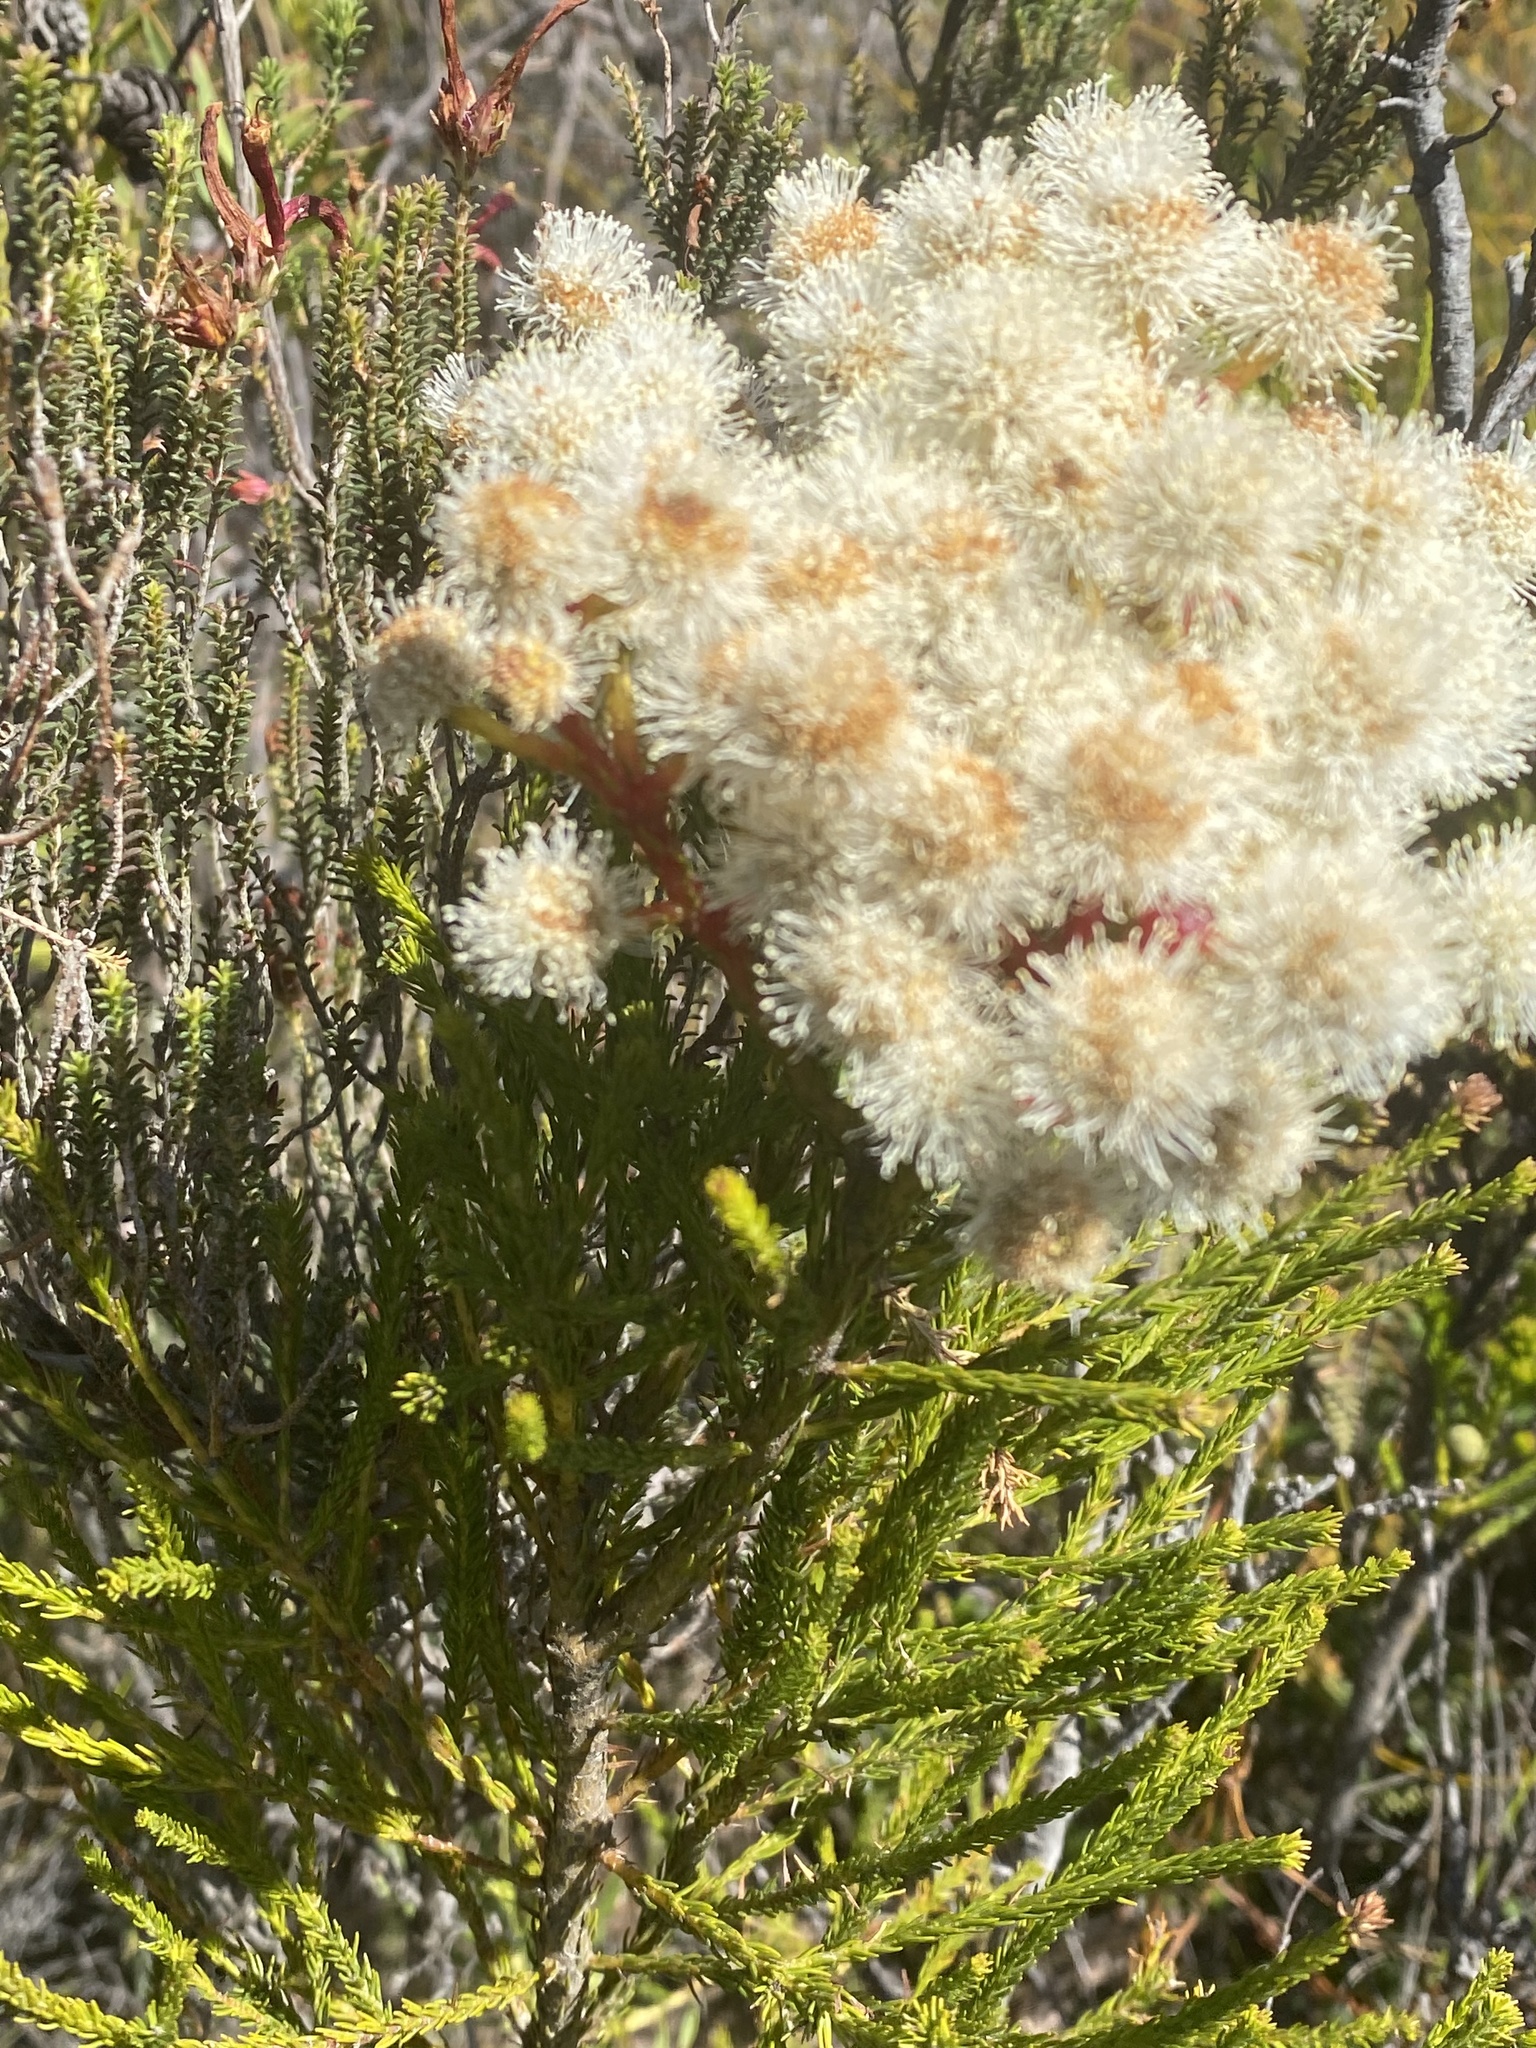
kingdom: Plantae
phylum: Tracheophyta
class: Magnoliopsida
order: Bruniales
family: Bruniaceae
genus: Berzelia
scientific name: Berzelia abrotanoides
